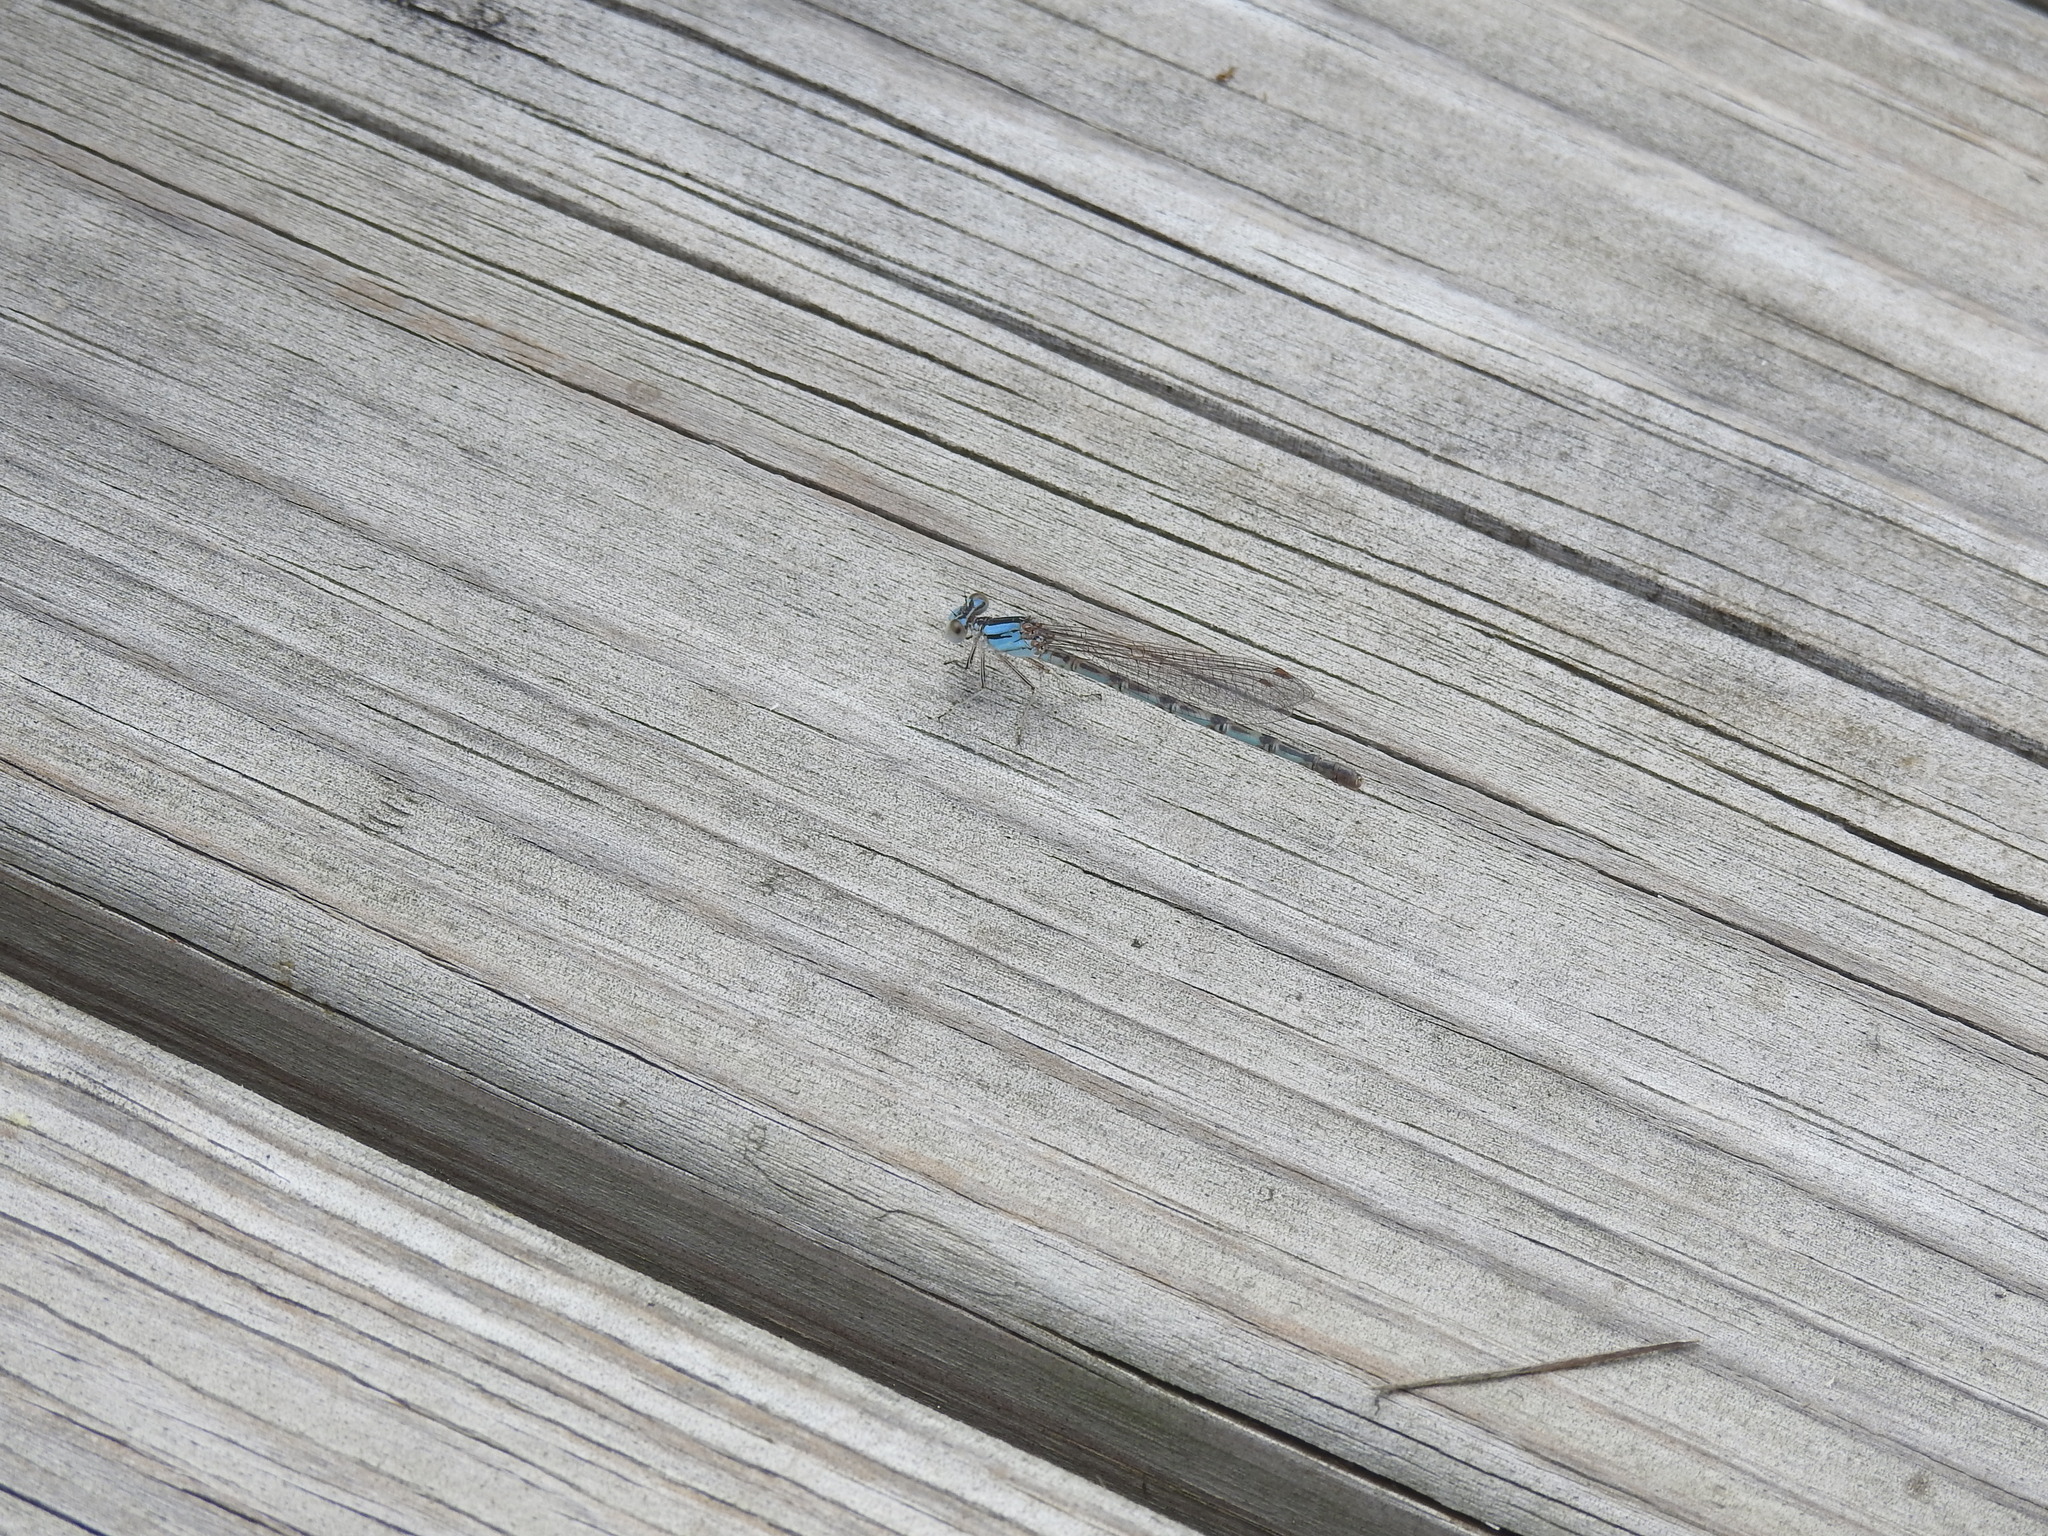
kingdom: Animalia
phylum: Arthropoda
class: Insecta
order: Odonata
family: Coenagrionidae
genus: Argia
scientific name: Argia alberta
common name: Paiute dancer
